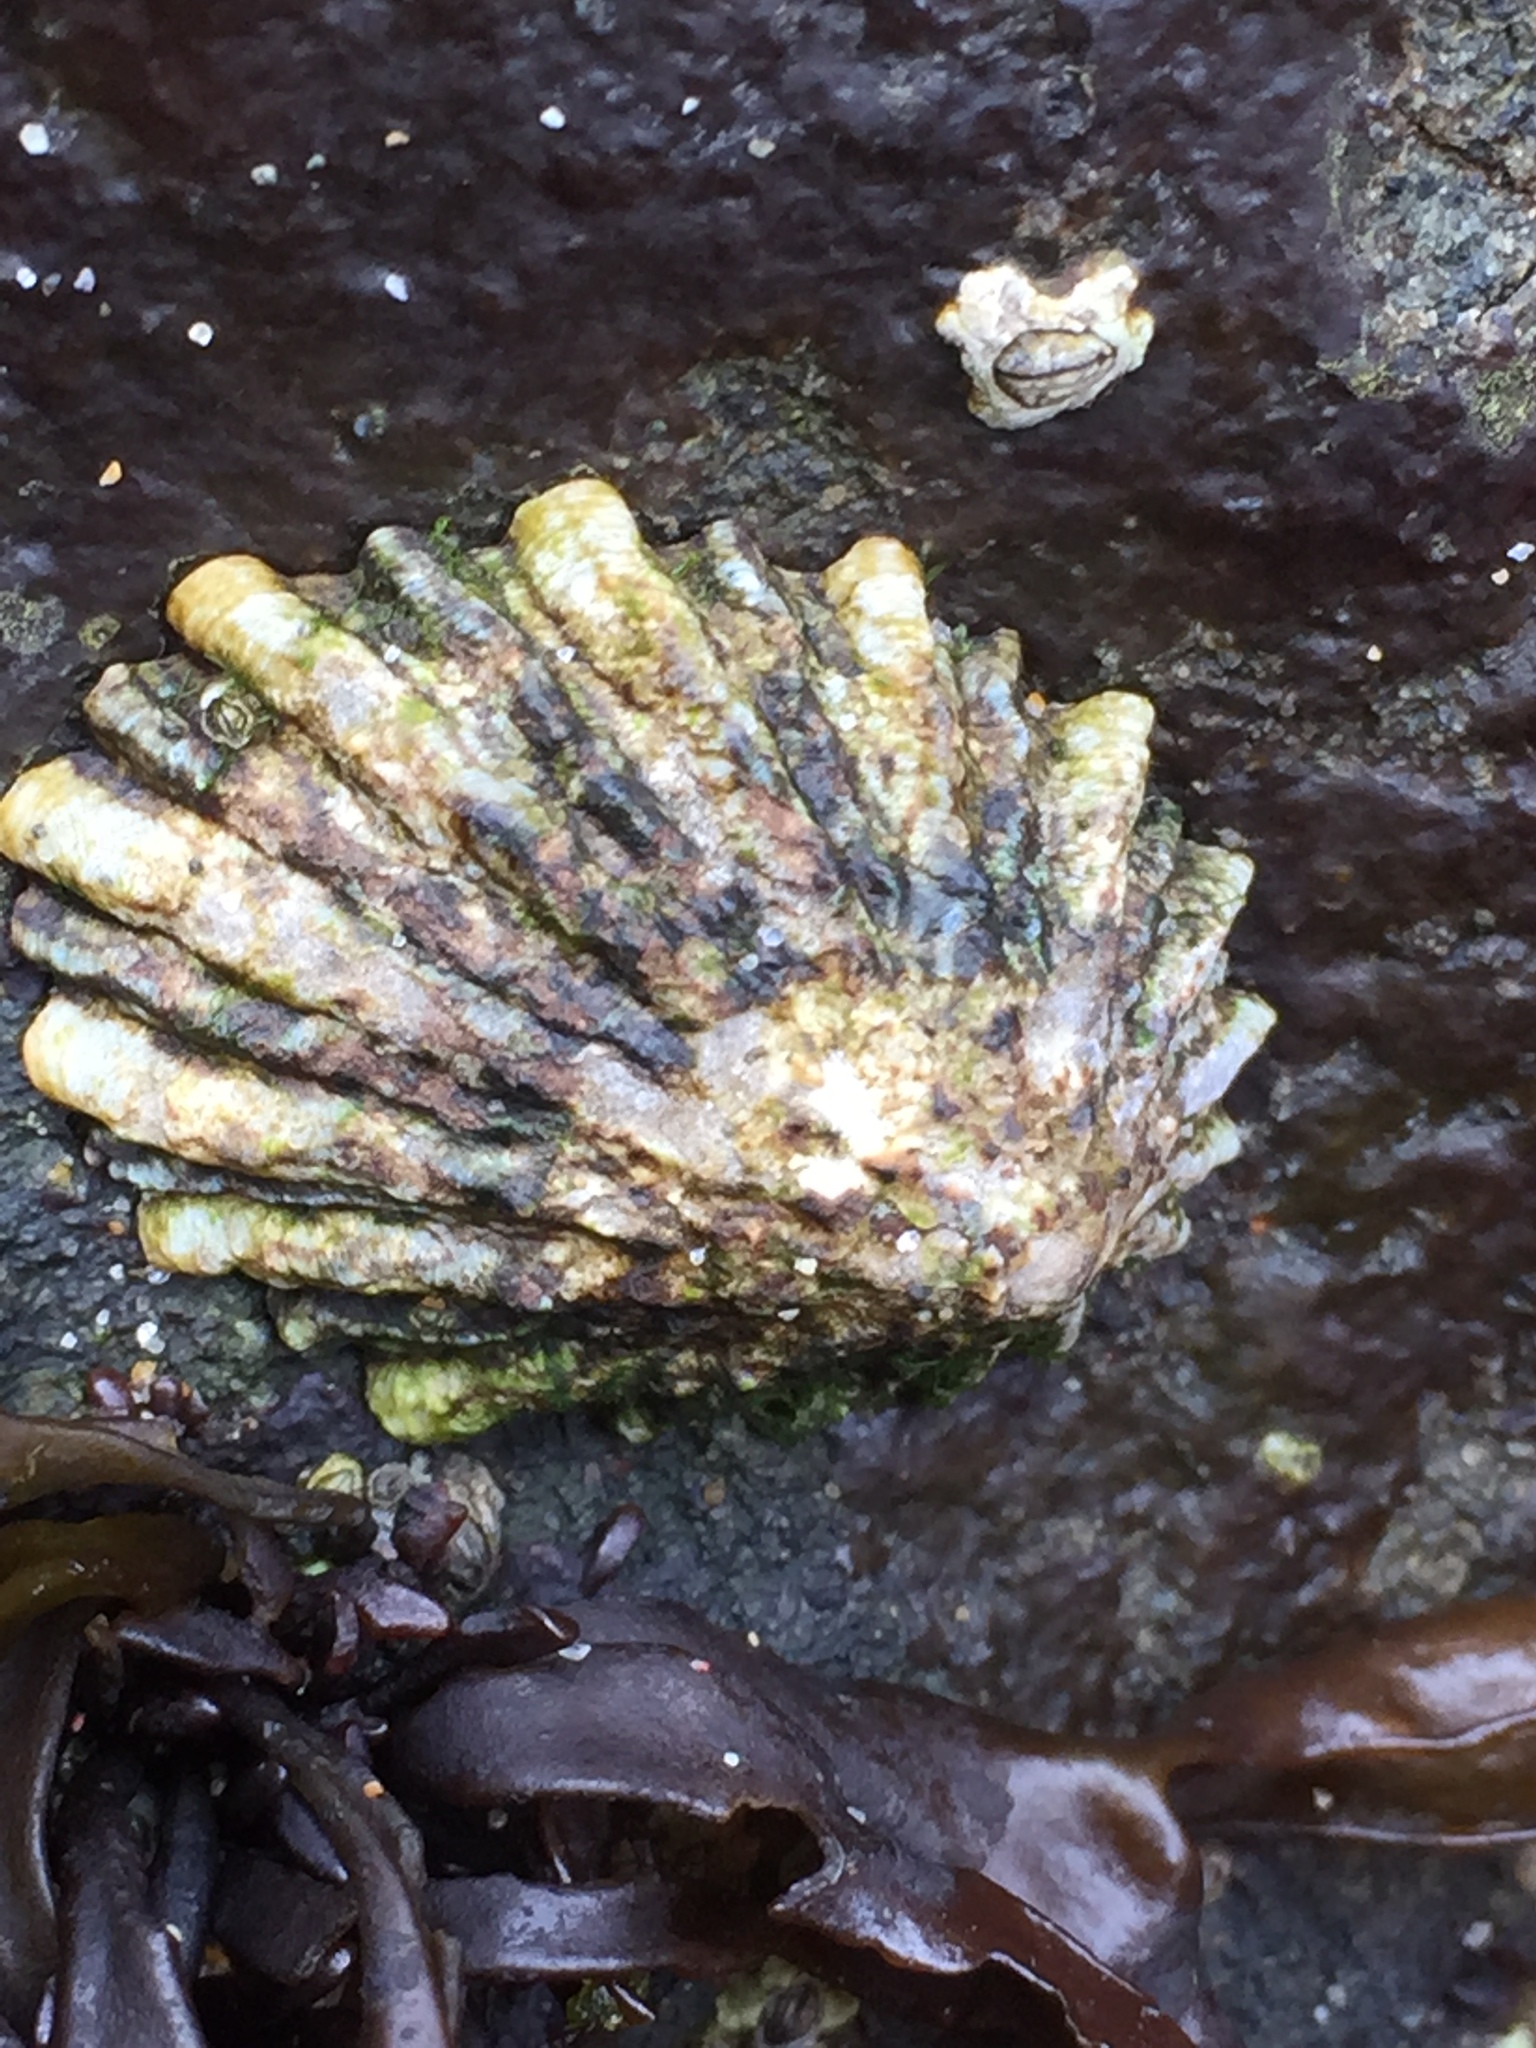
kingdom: Animalia
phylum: Mollusca
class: Gastropoda
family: Lottiidae
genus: Lottia
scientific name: Lottia scabra
